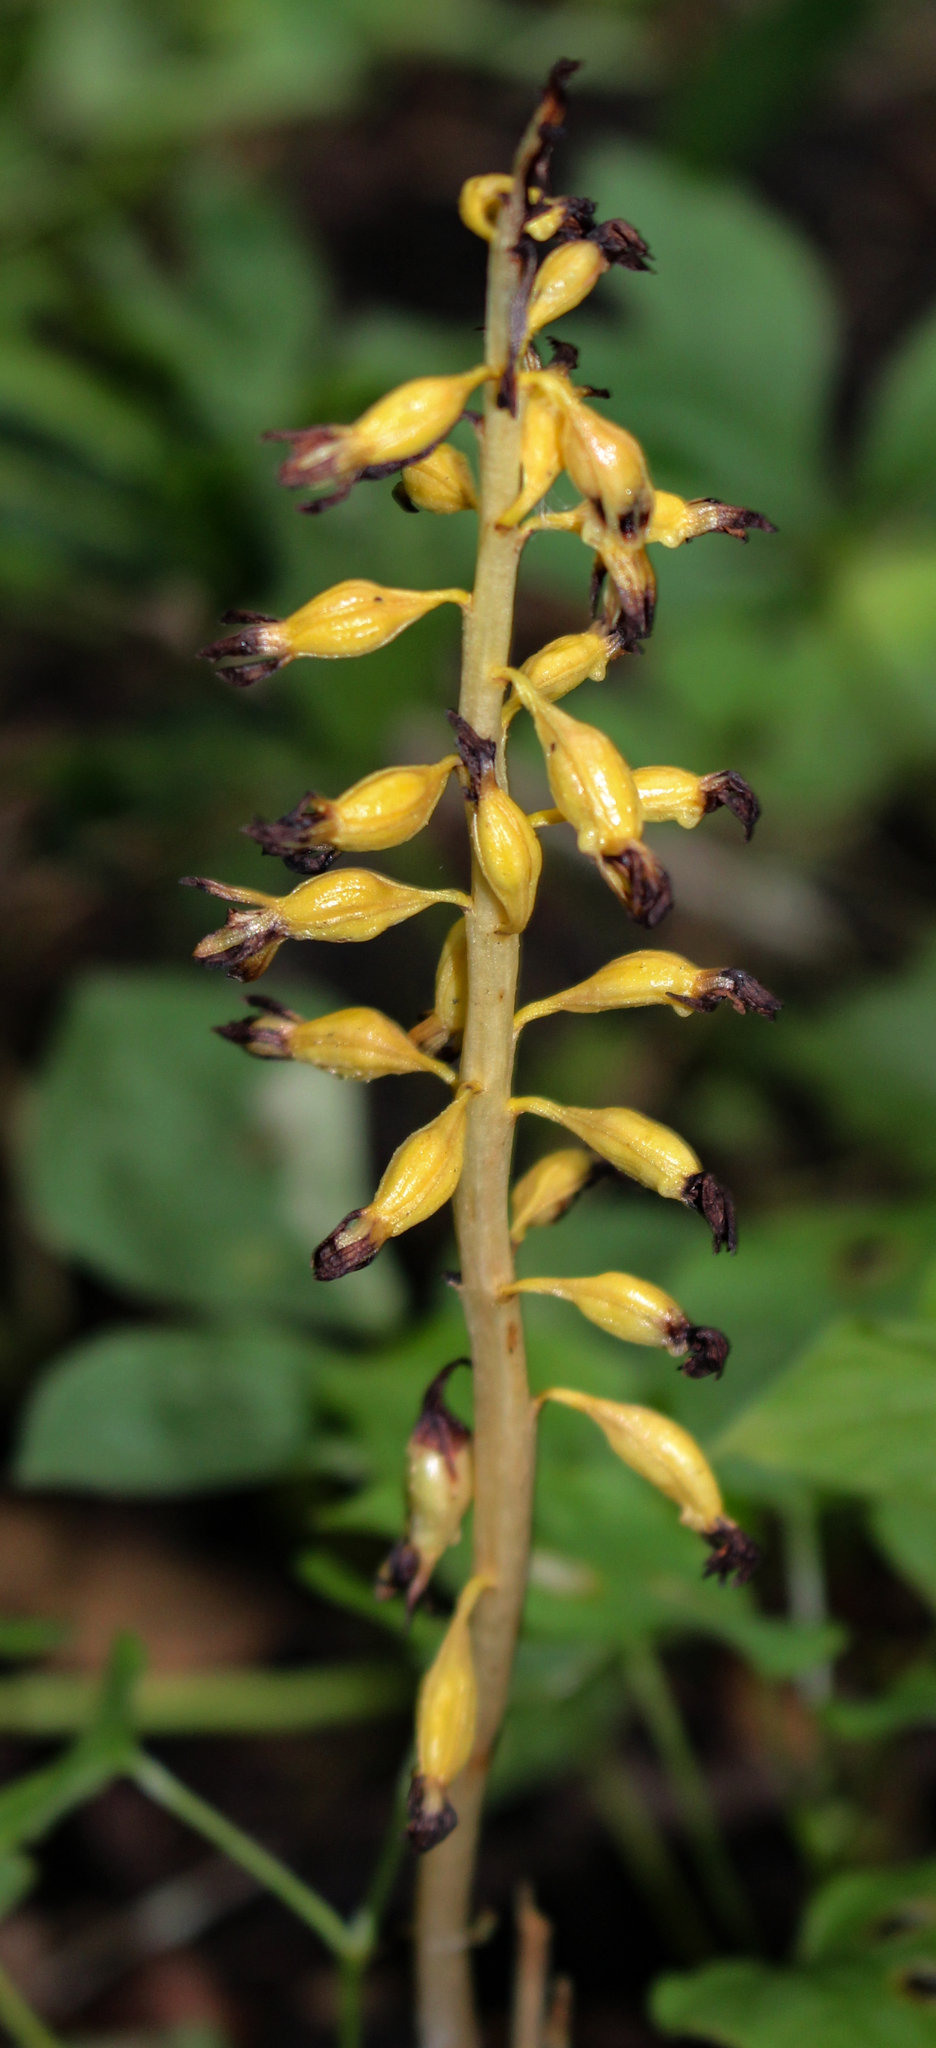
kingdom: Plantae
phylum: Tracheophyta
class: Liliopsida
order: Asparagales
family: Orchidaceae
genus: Corallorhiza
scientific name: Corallorhiza maculata
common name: Spotted coralroot
